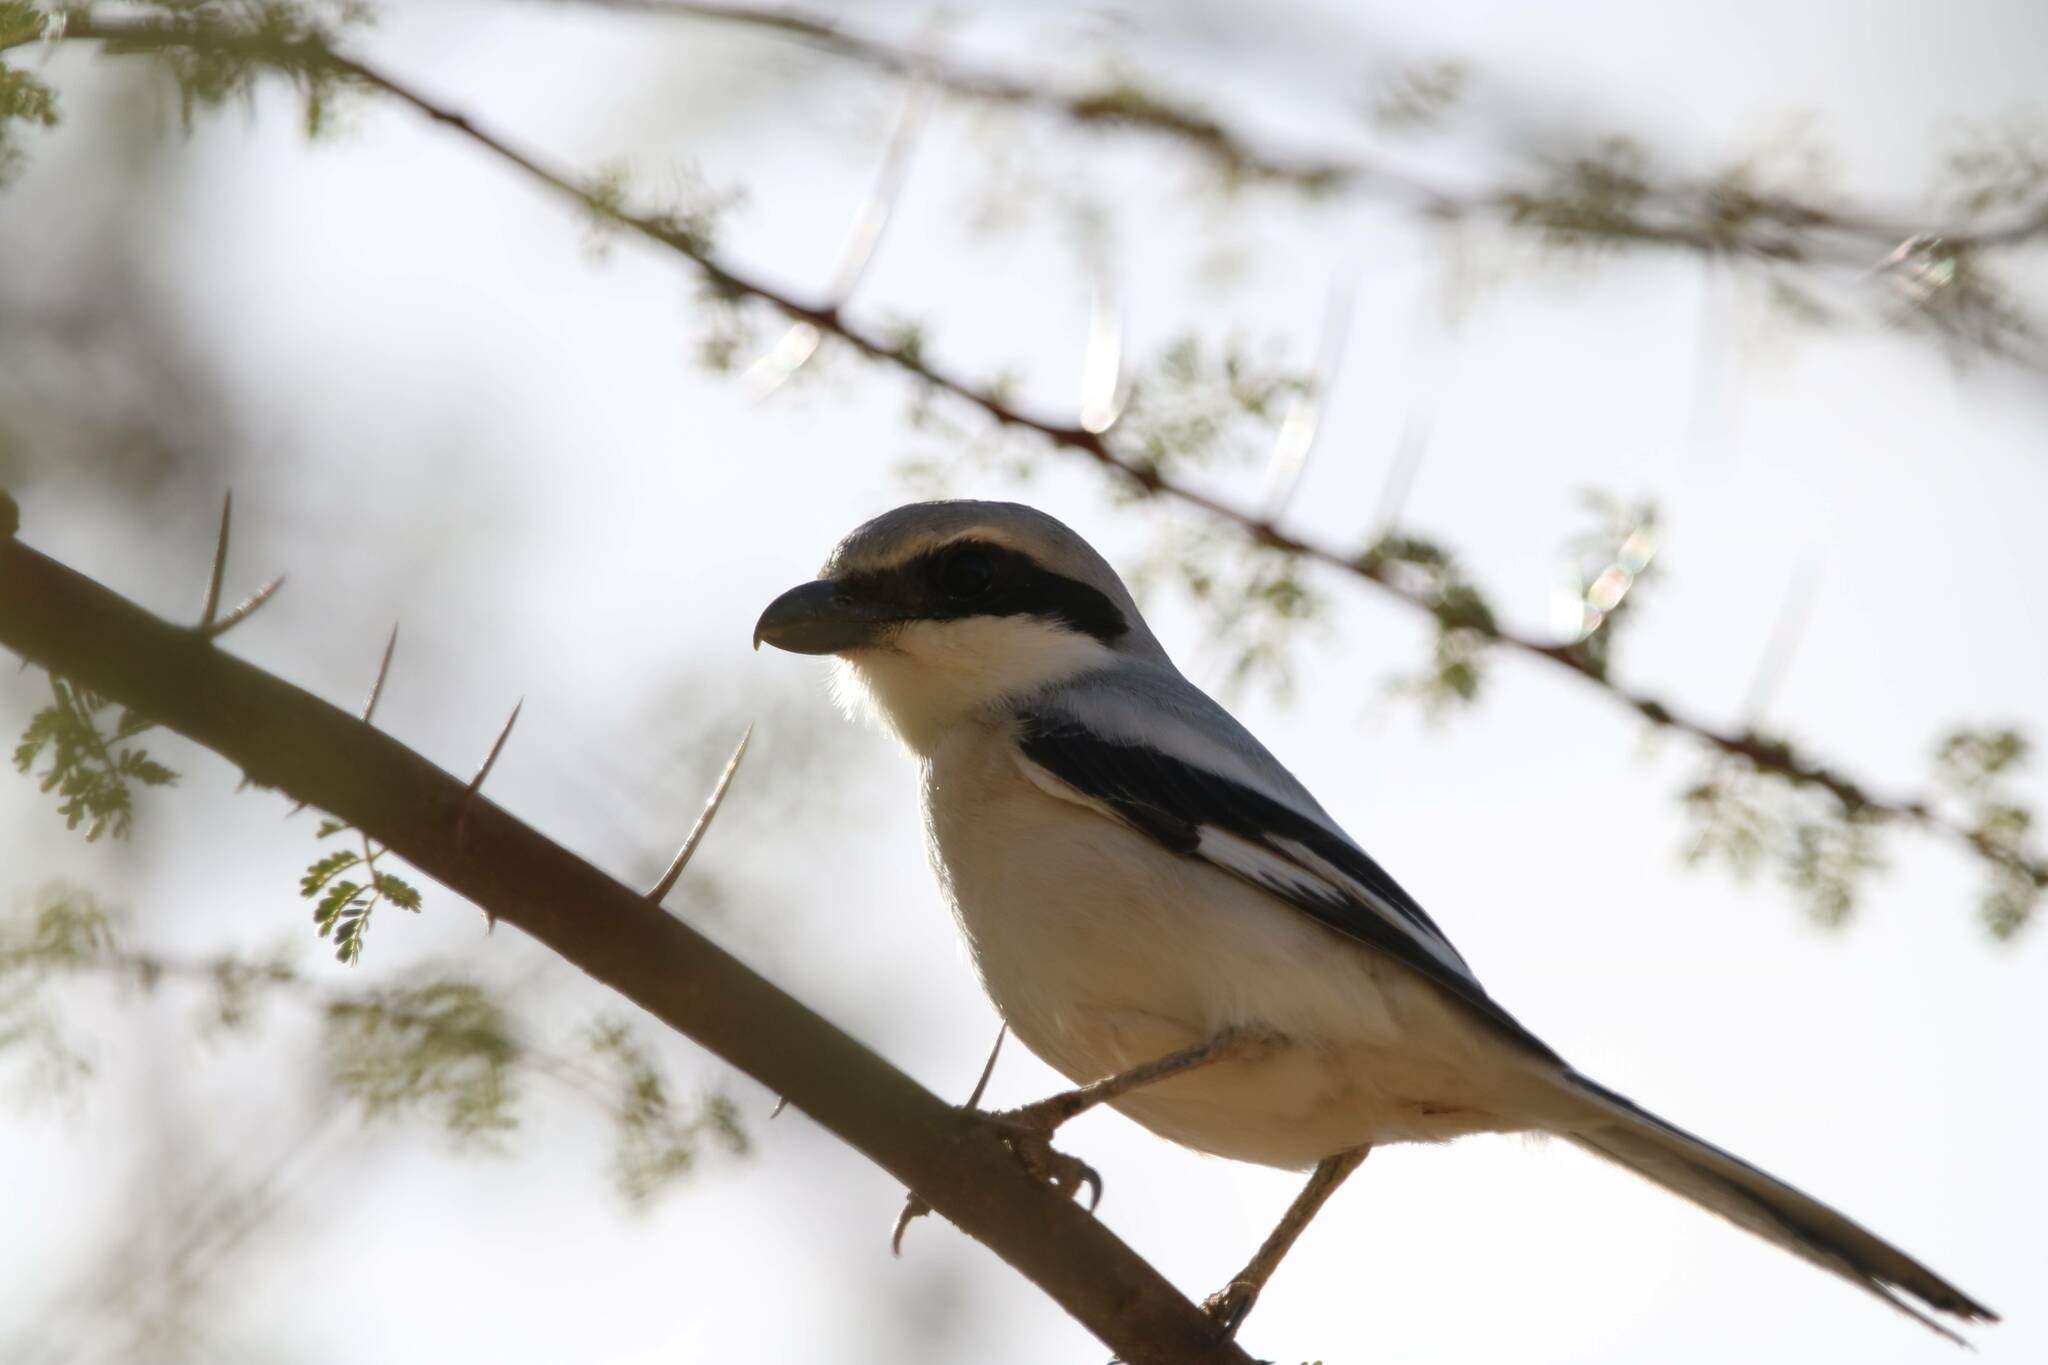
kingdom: Animalia
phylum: Chordata
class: Aves
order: Passeriformes
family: Laniidae
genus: Lanius
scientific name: Lanius excubitor
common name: Great grey shrike
